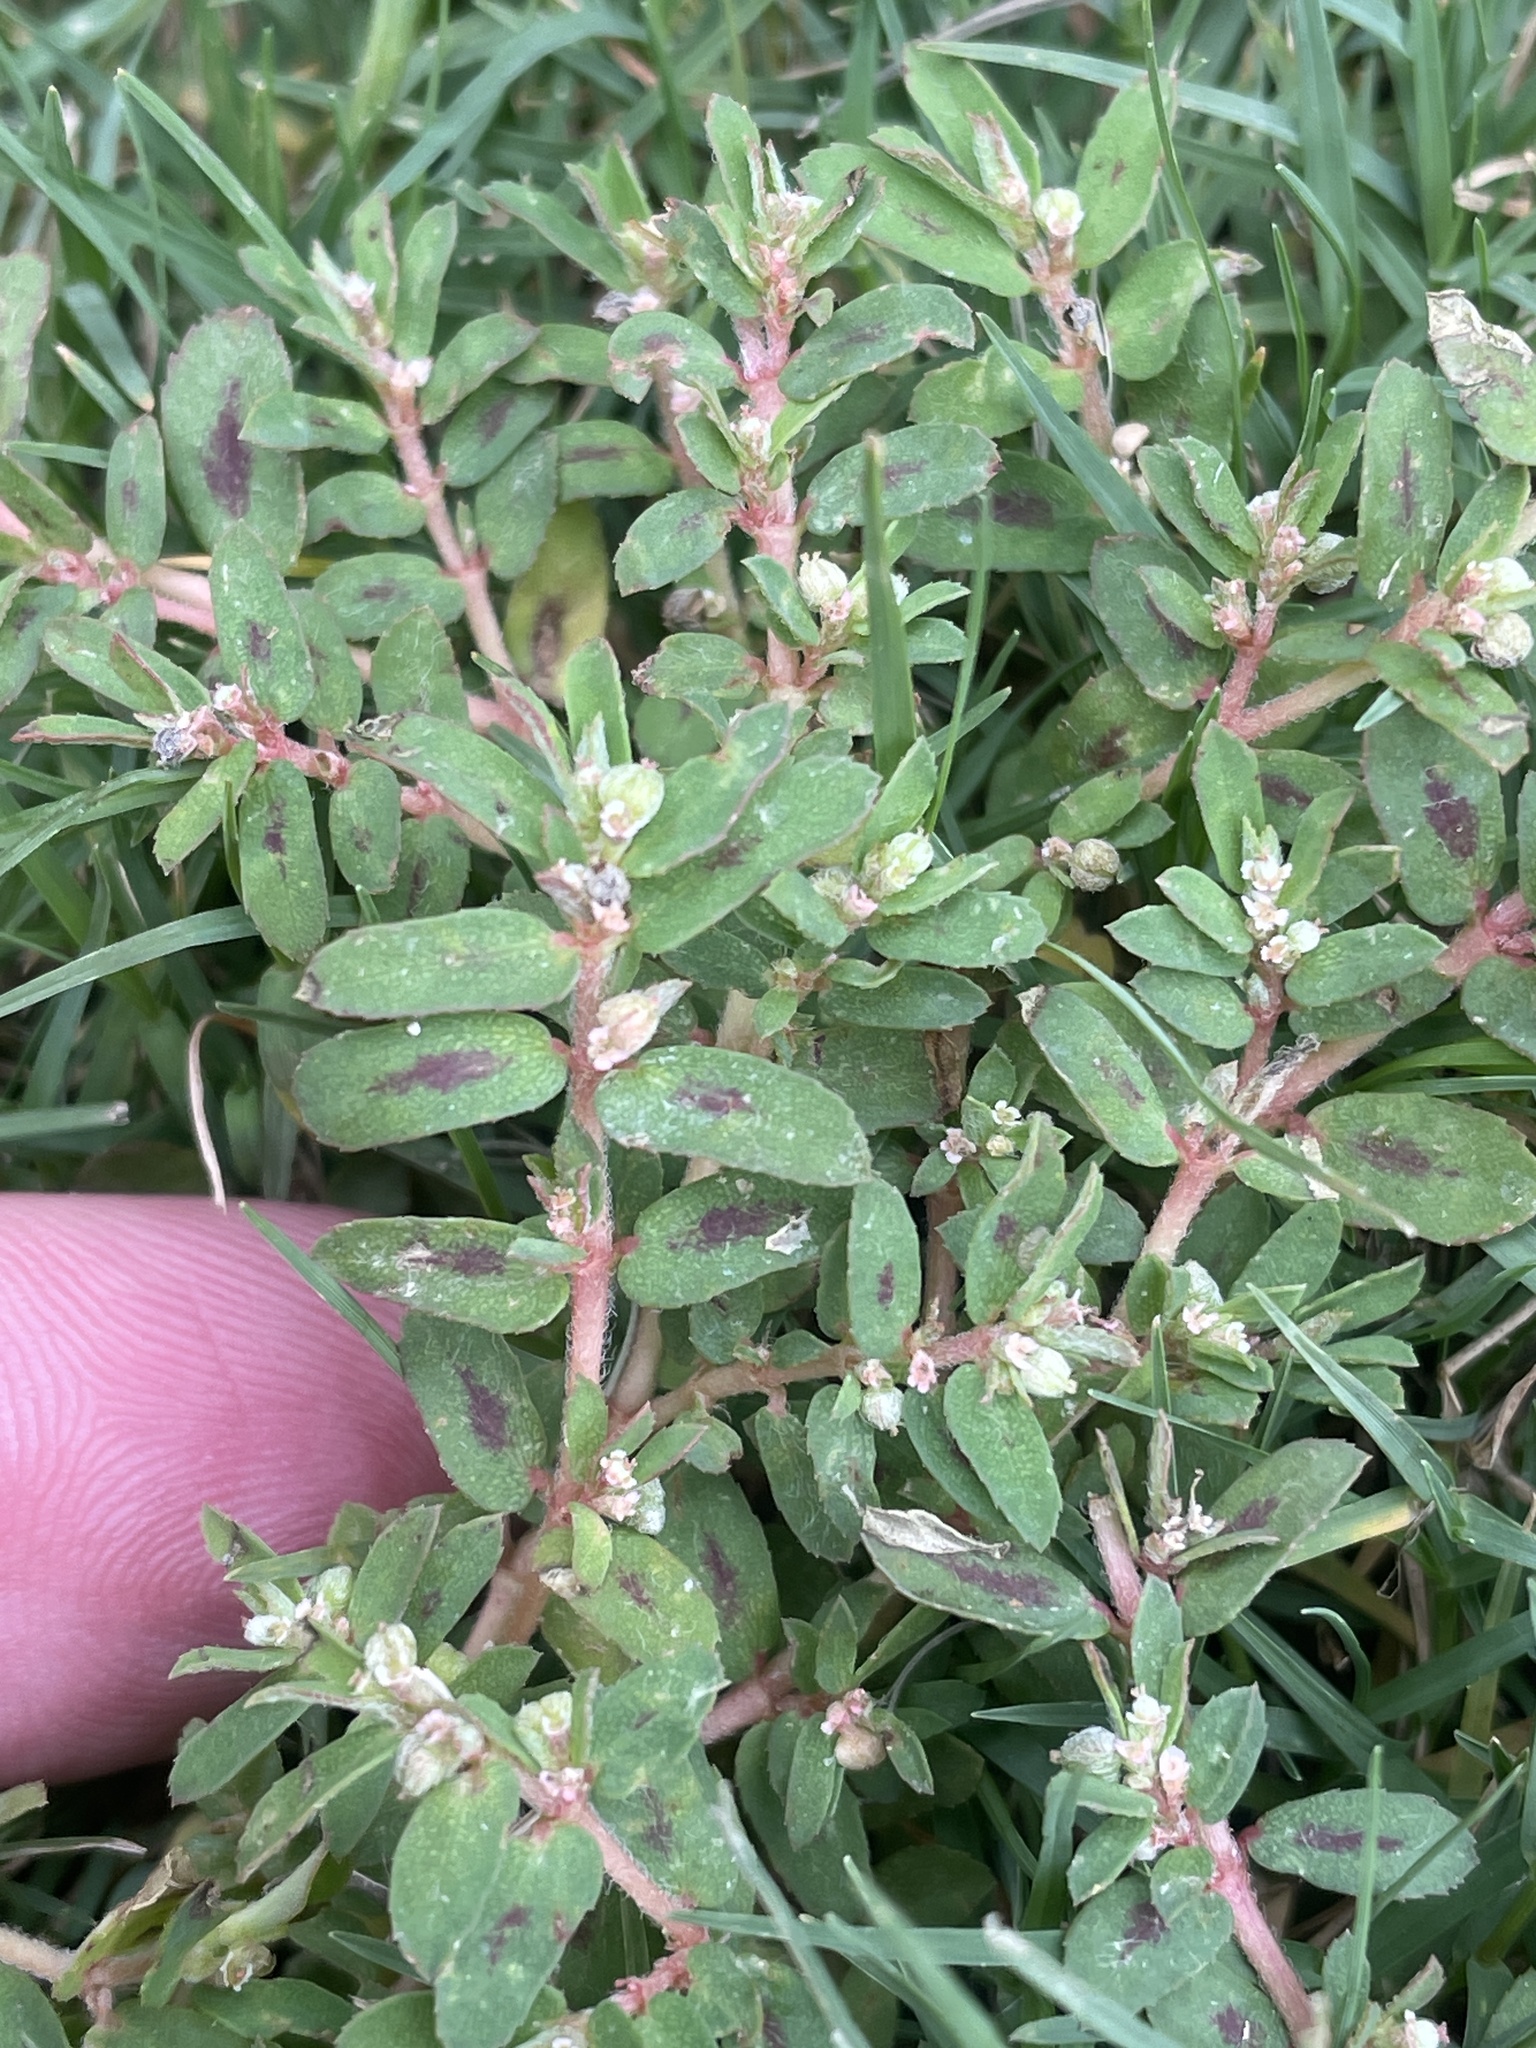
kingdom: Plantae
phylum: Tracheophyta
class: Magnoliopsida
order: Malpighiales
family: Euphorbiaceae
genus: Euphorbia
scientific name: Euphorbia maculata
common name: Spotted spurge
